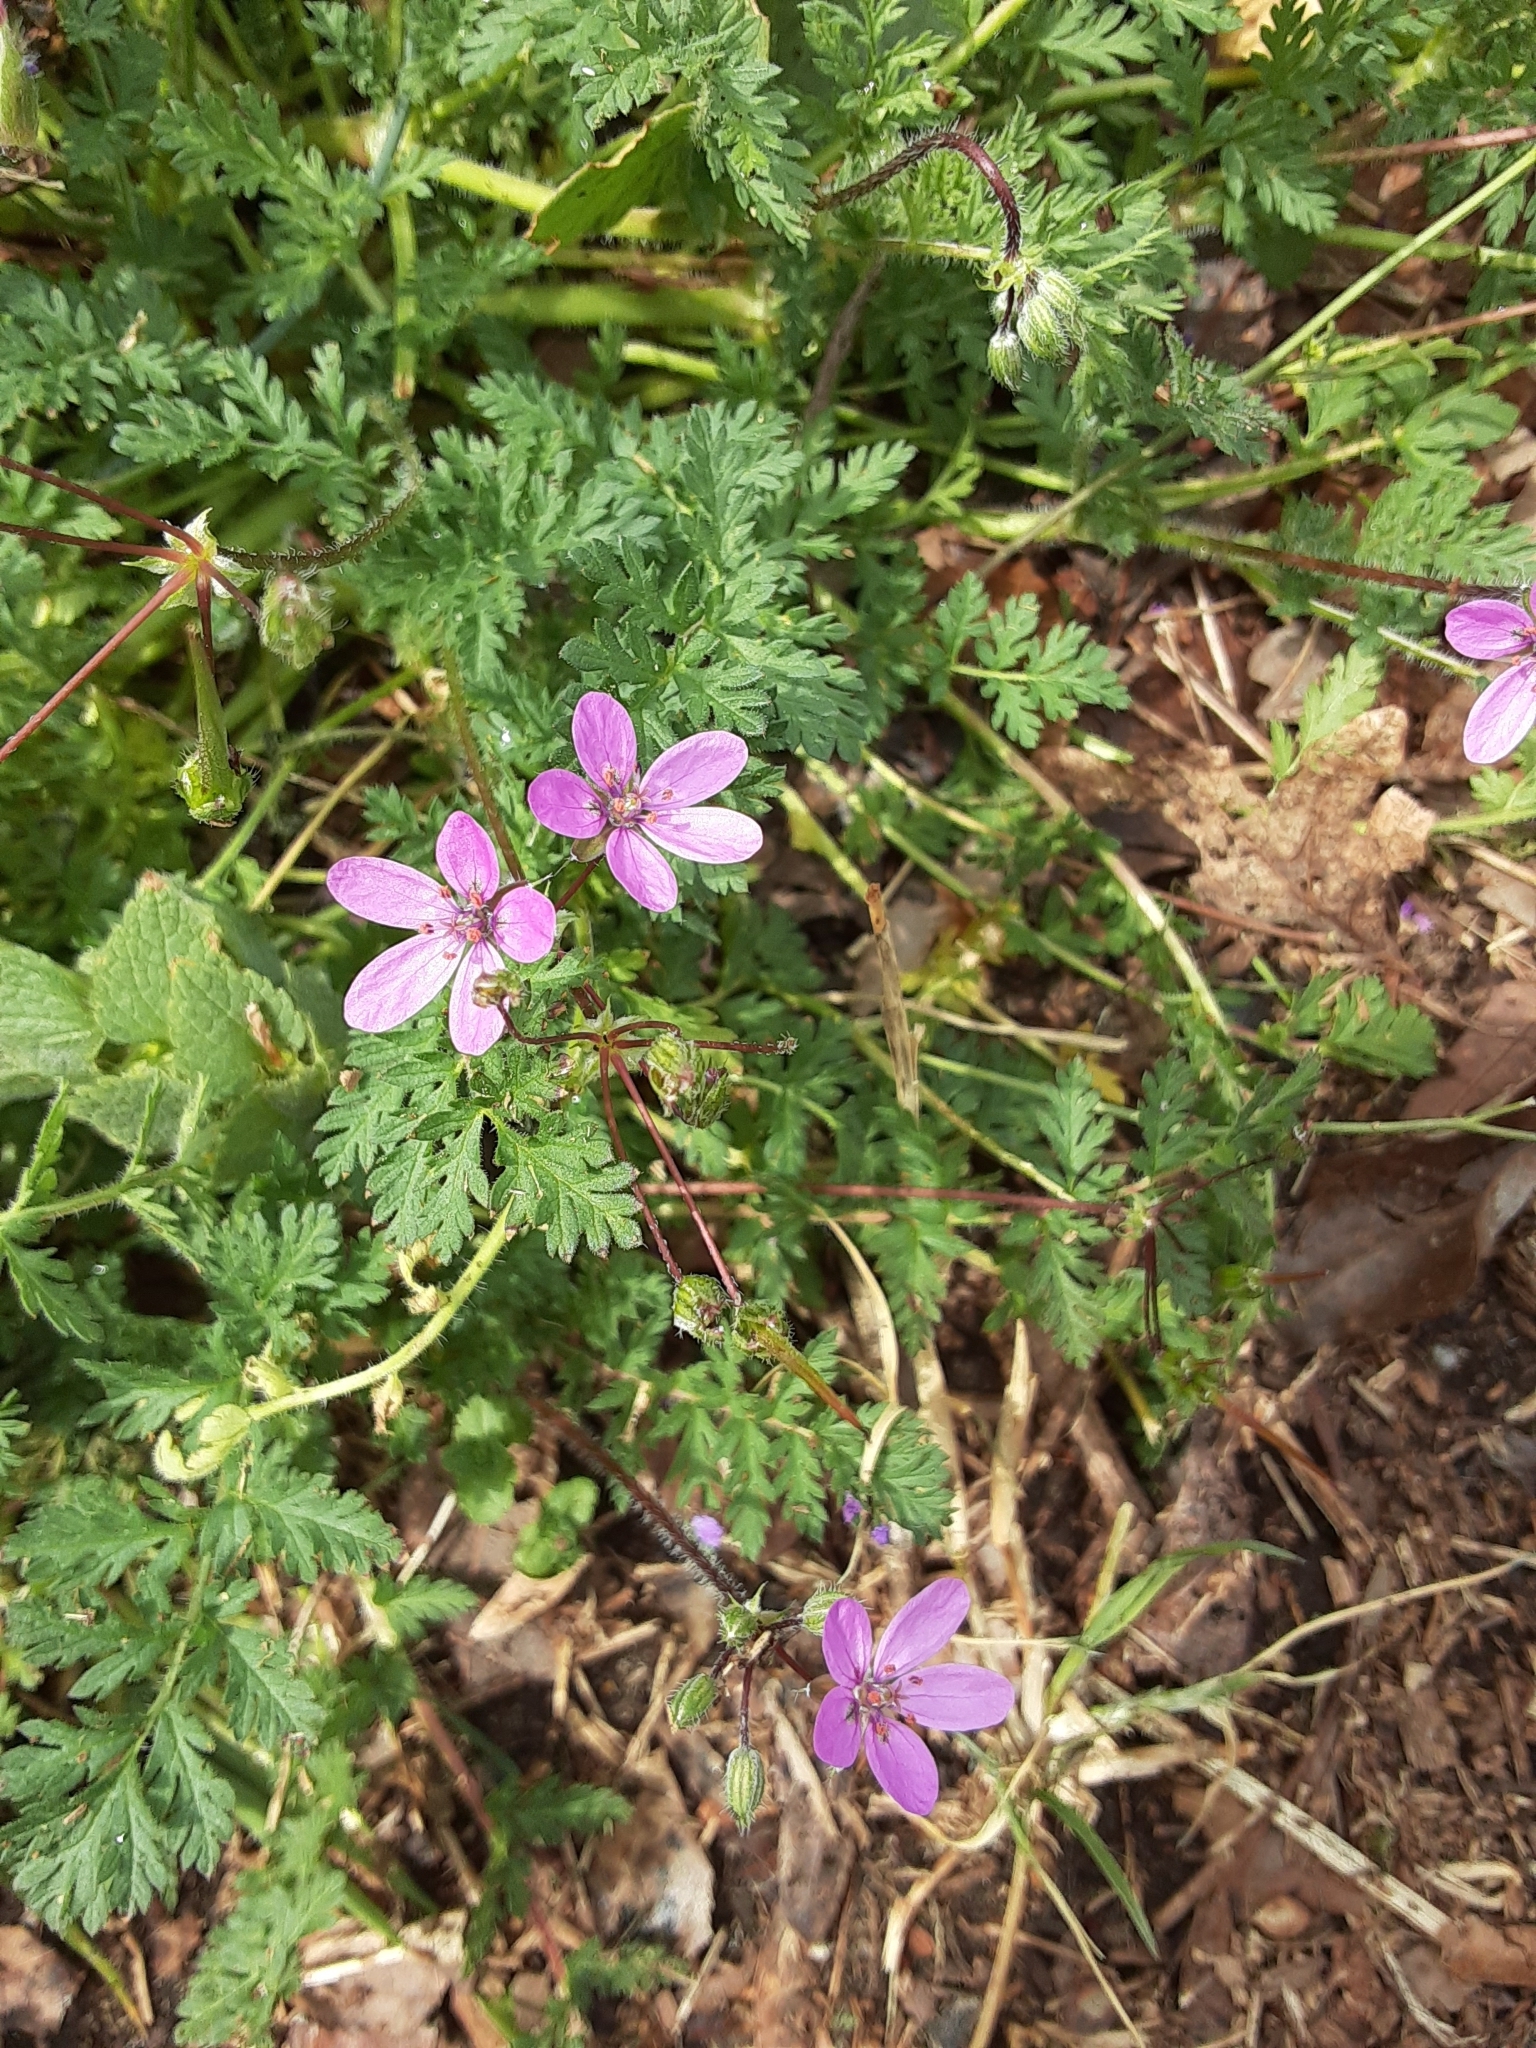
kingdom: Plantae
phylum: Tracheophyta
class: Magnoliopsida
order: Geraniales
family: Geraniaceae
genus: Erodium
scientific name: Erodium cicutarium
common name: Common stork's-bill
